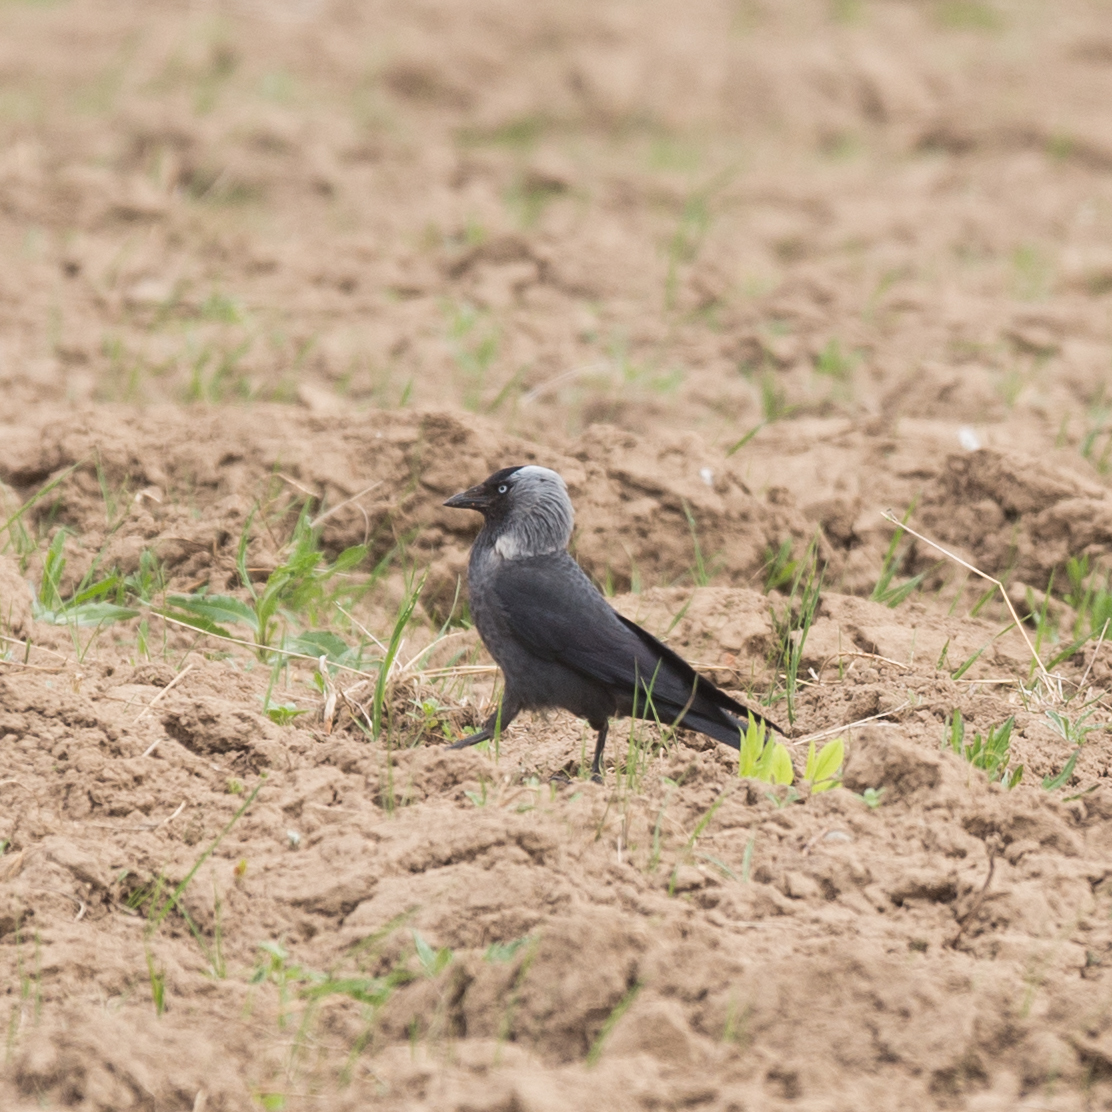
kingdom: Animalia
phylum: Chordata
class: Aves
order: Passeriformes
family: Corvidae
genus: Coloeus
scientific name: Coloeus monedula
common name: Western jackdaw
